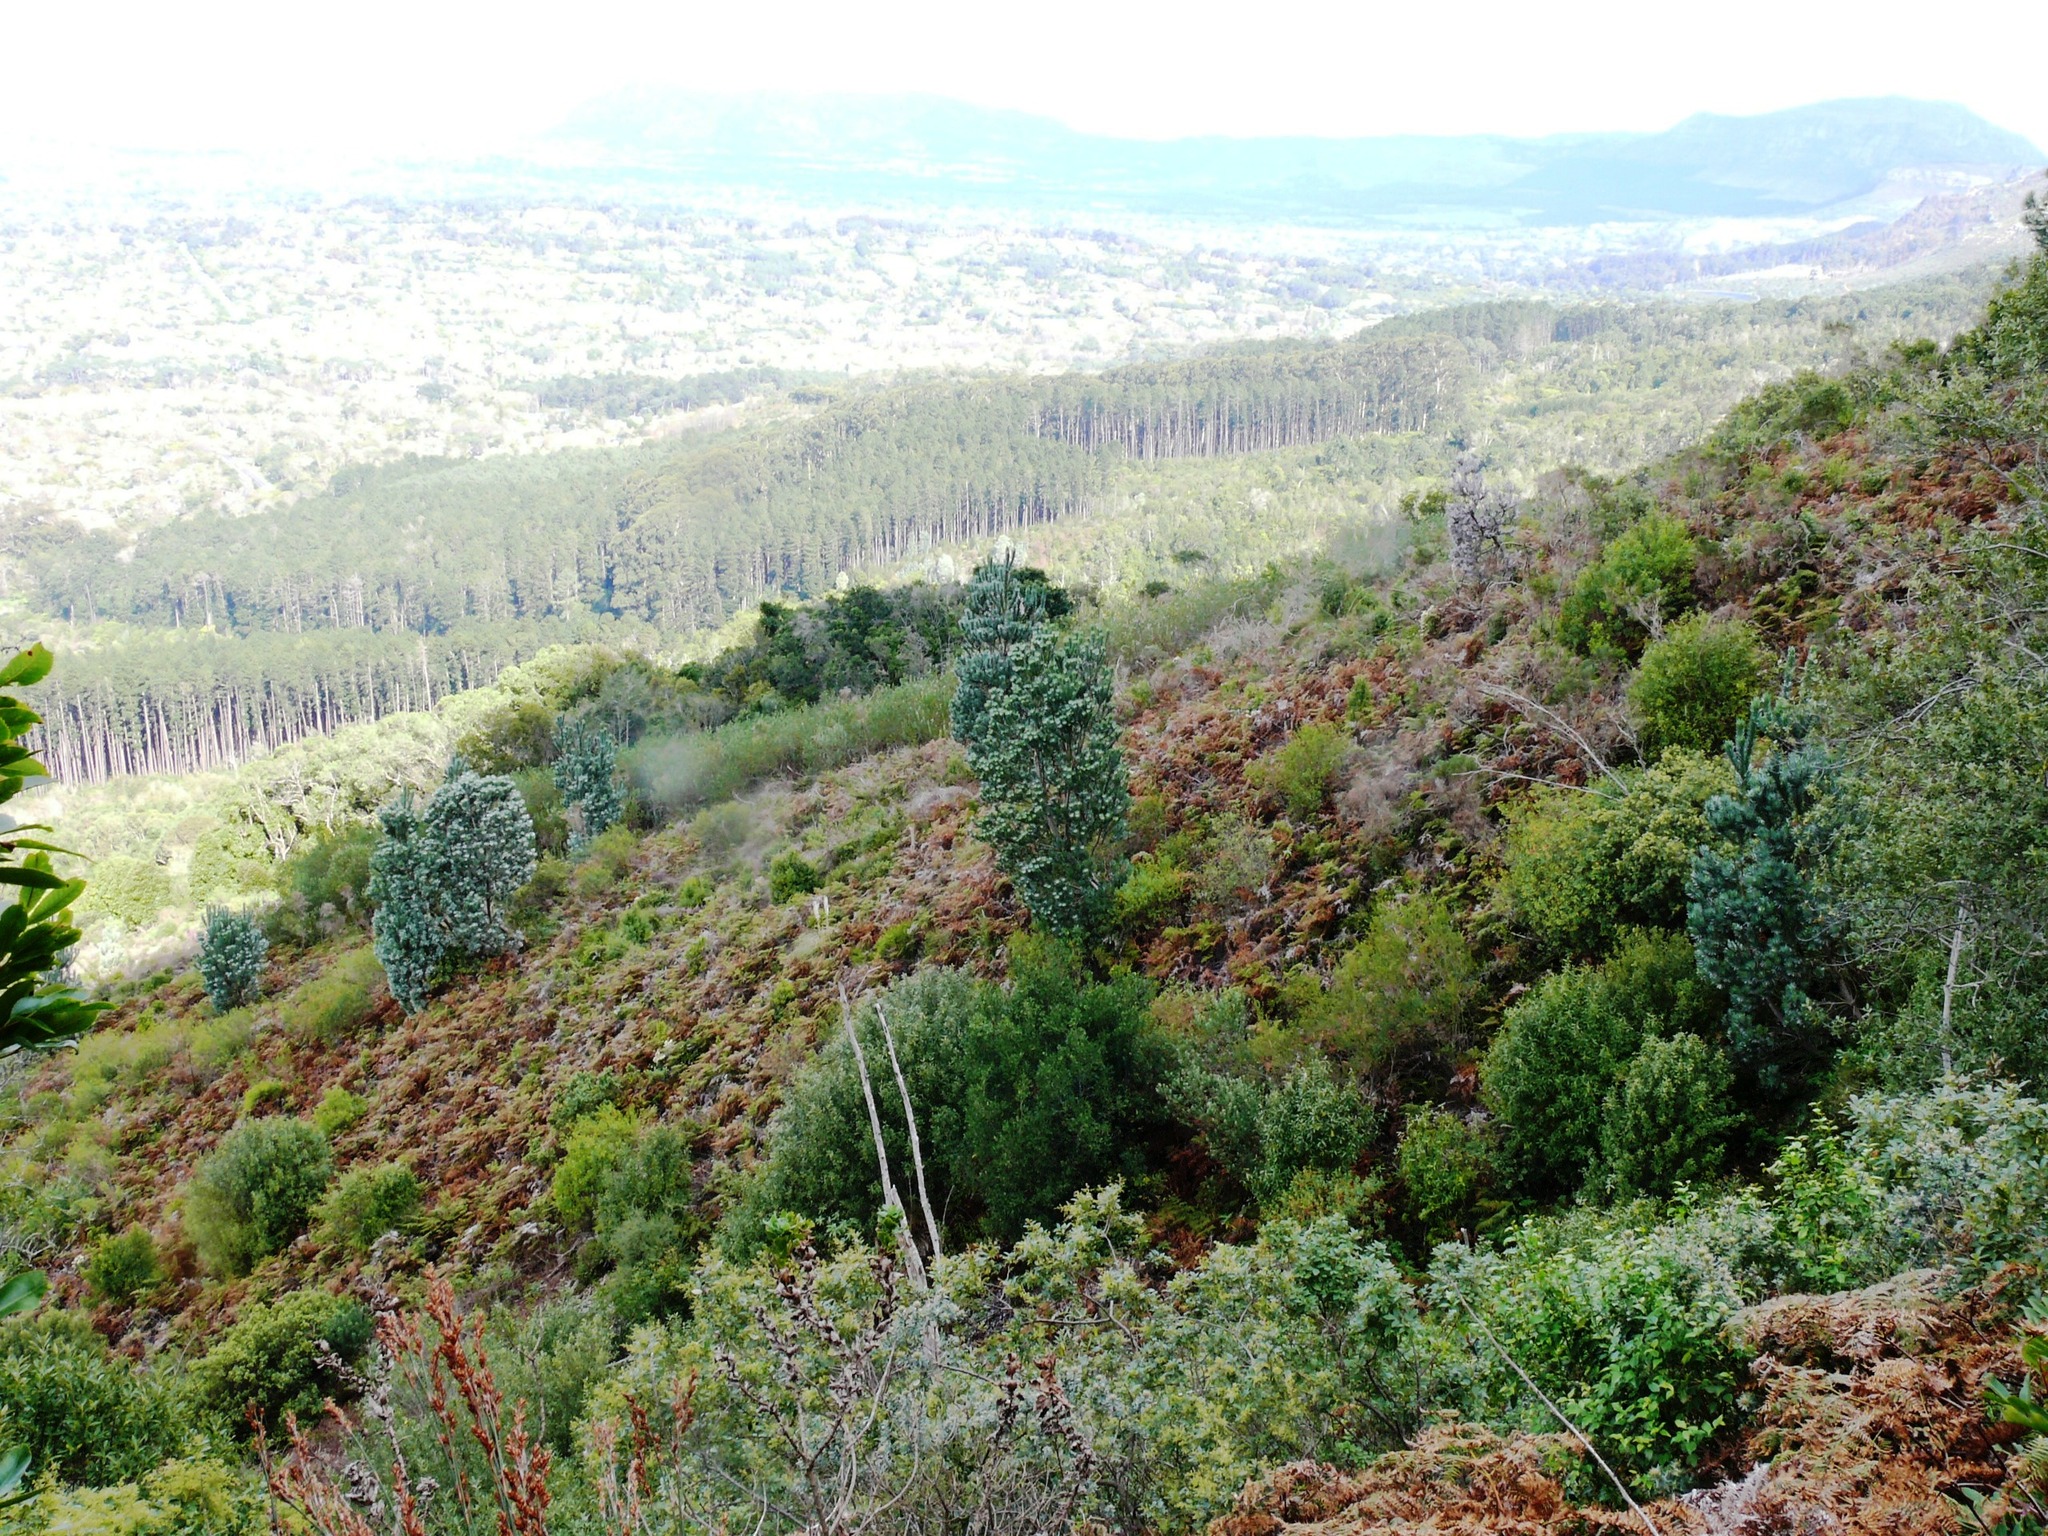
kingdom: Plantae
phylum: Tracheophyta
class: Magnoliopsida
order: Proteales
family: Proteaceae
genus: Leucadendron
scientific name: Leucadendron argenteum
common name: Cape silver tree
